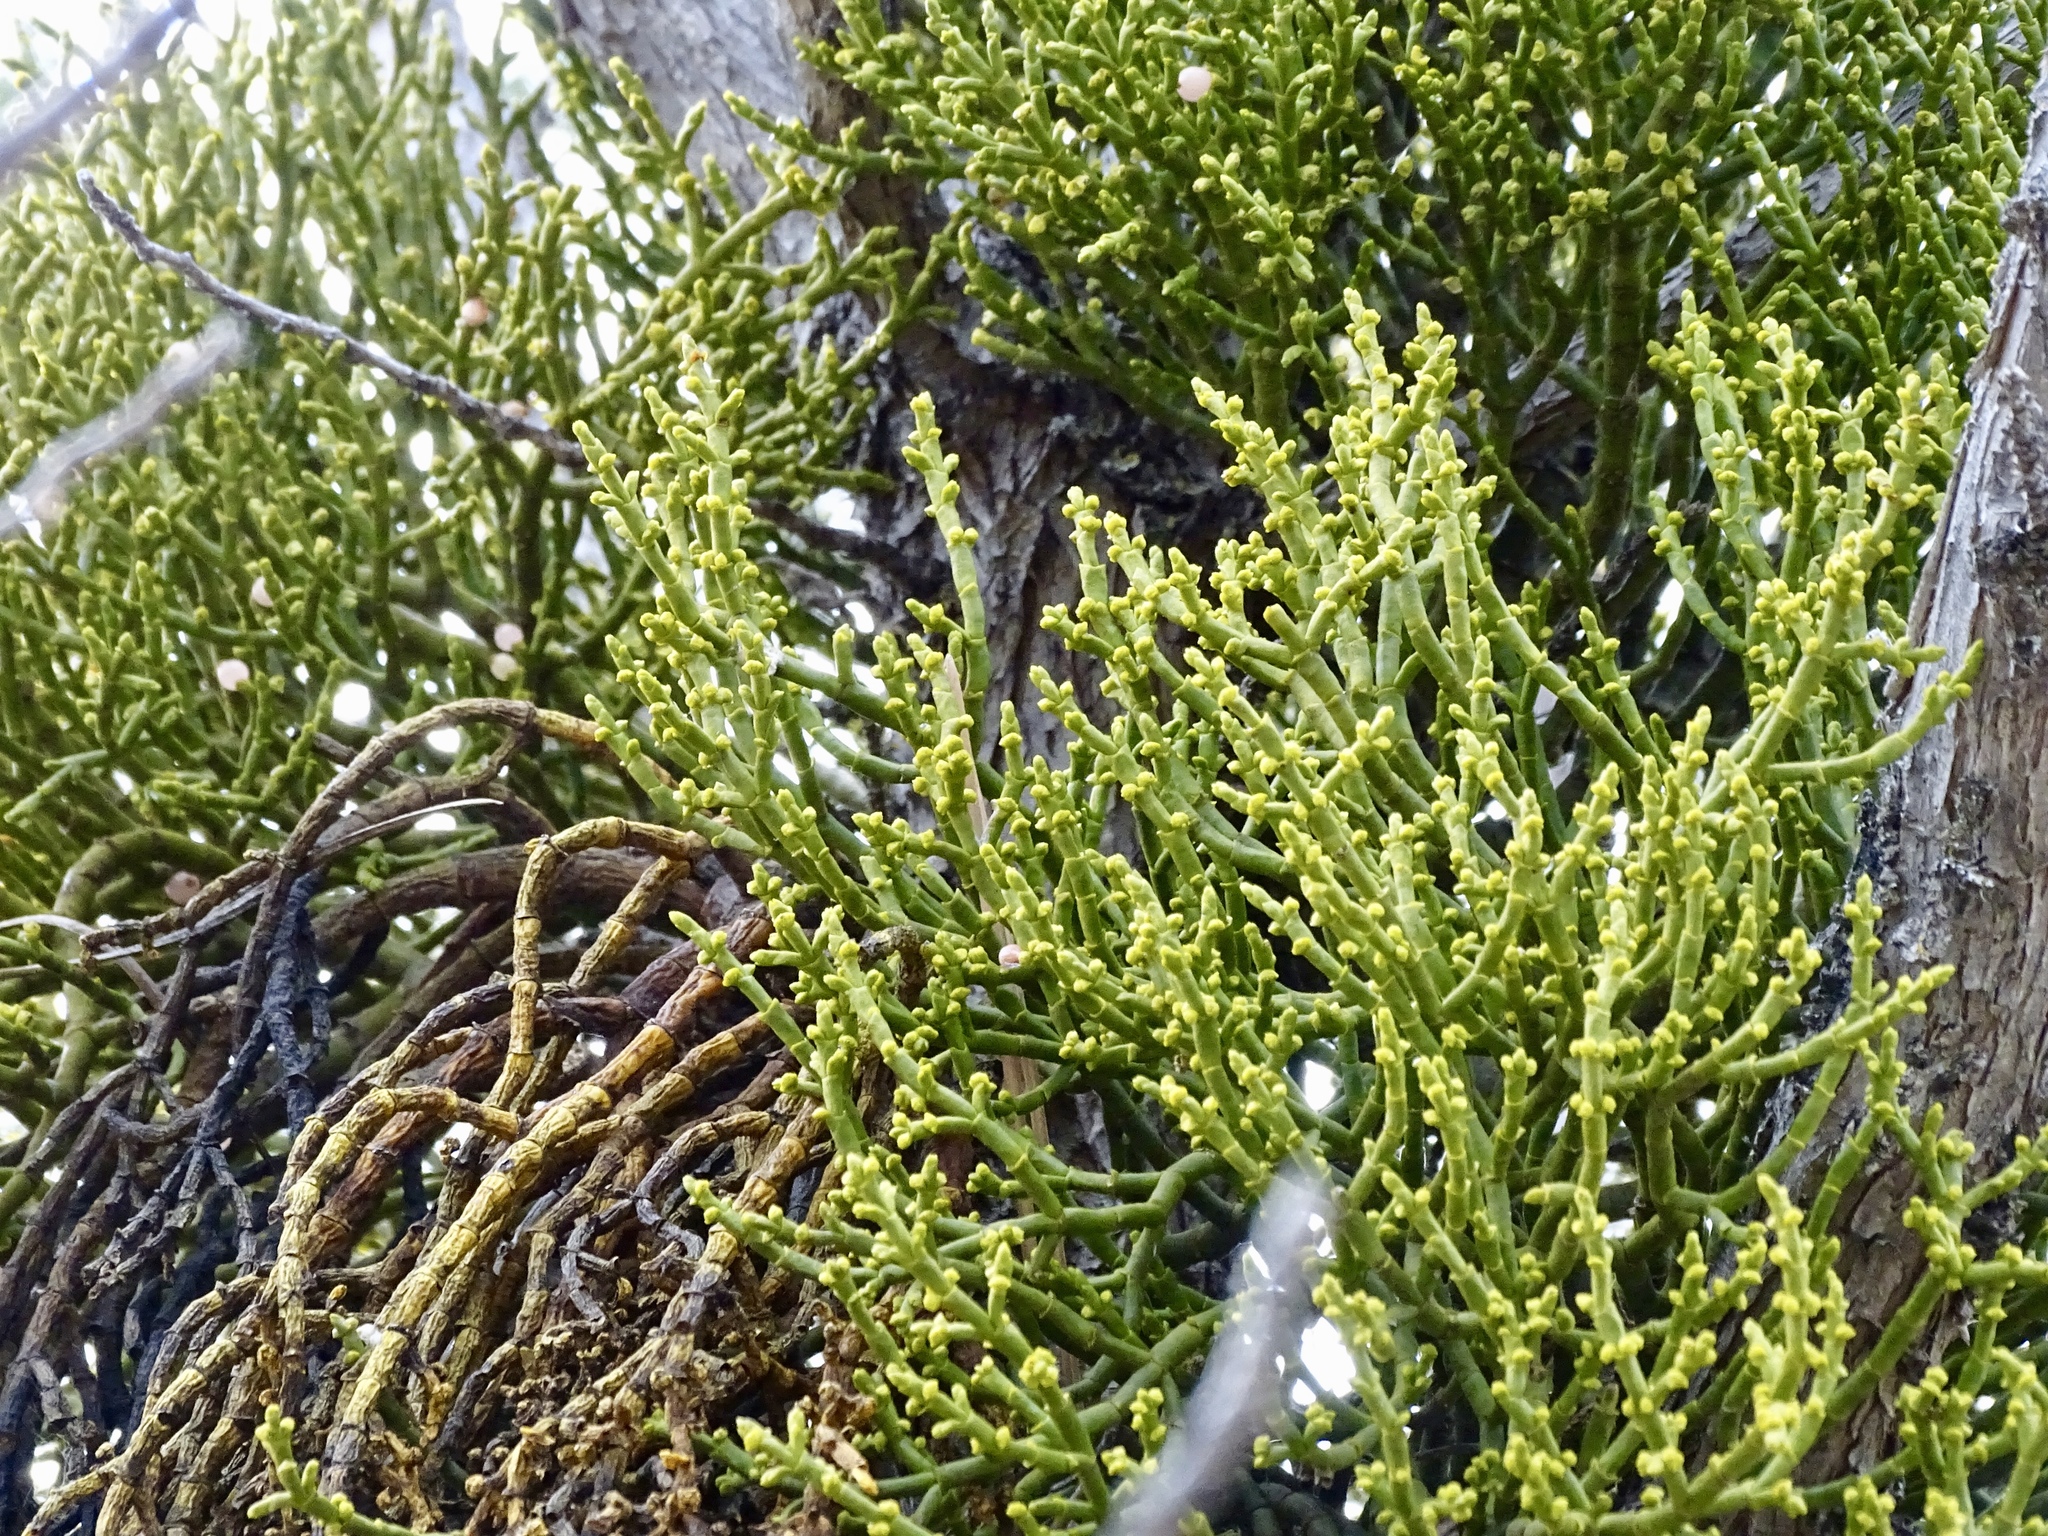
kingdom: Plantae
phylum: Tracheophyta
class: Magnoliopsida
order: Santalales
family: Viscaceae
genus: Phoradendron
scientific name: Phoradendron juniperinum
